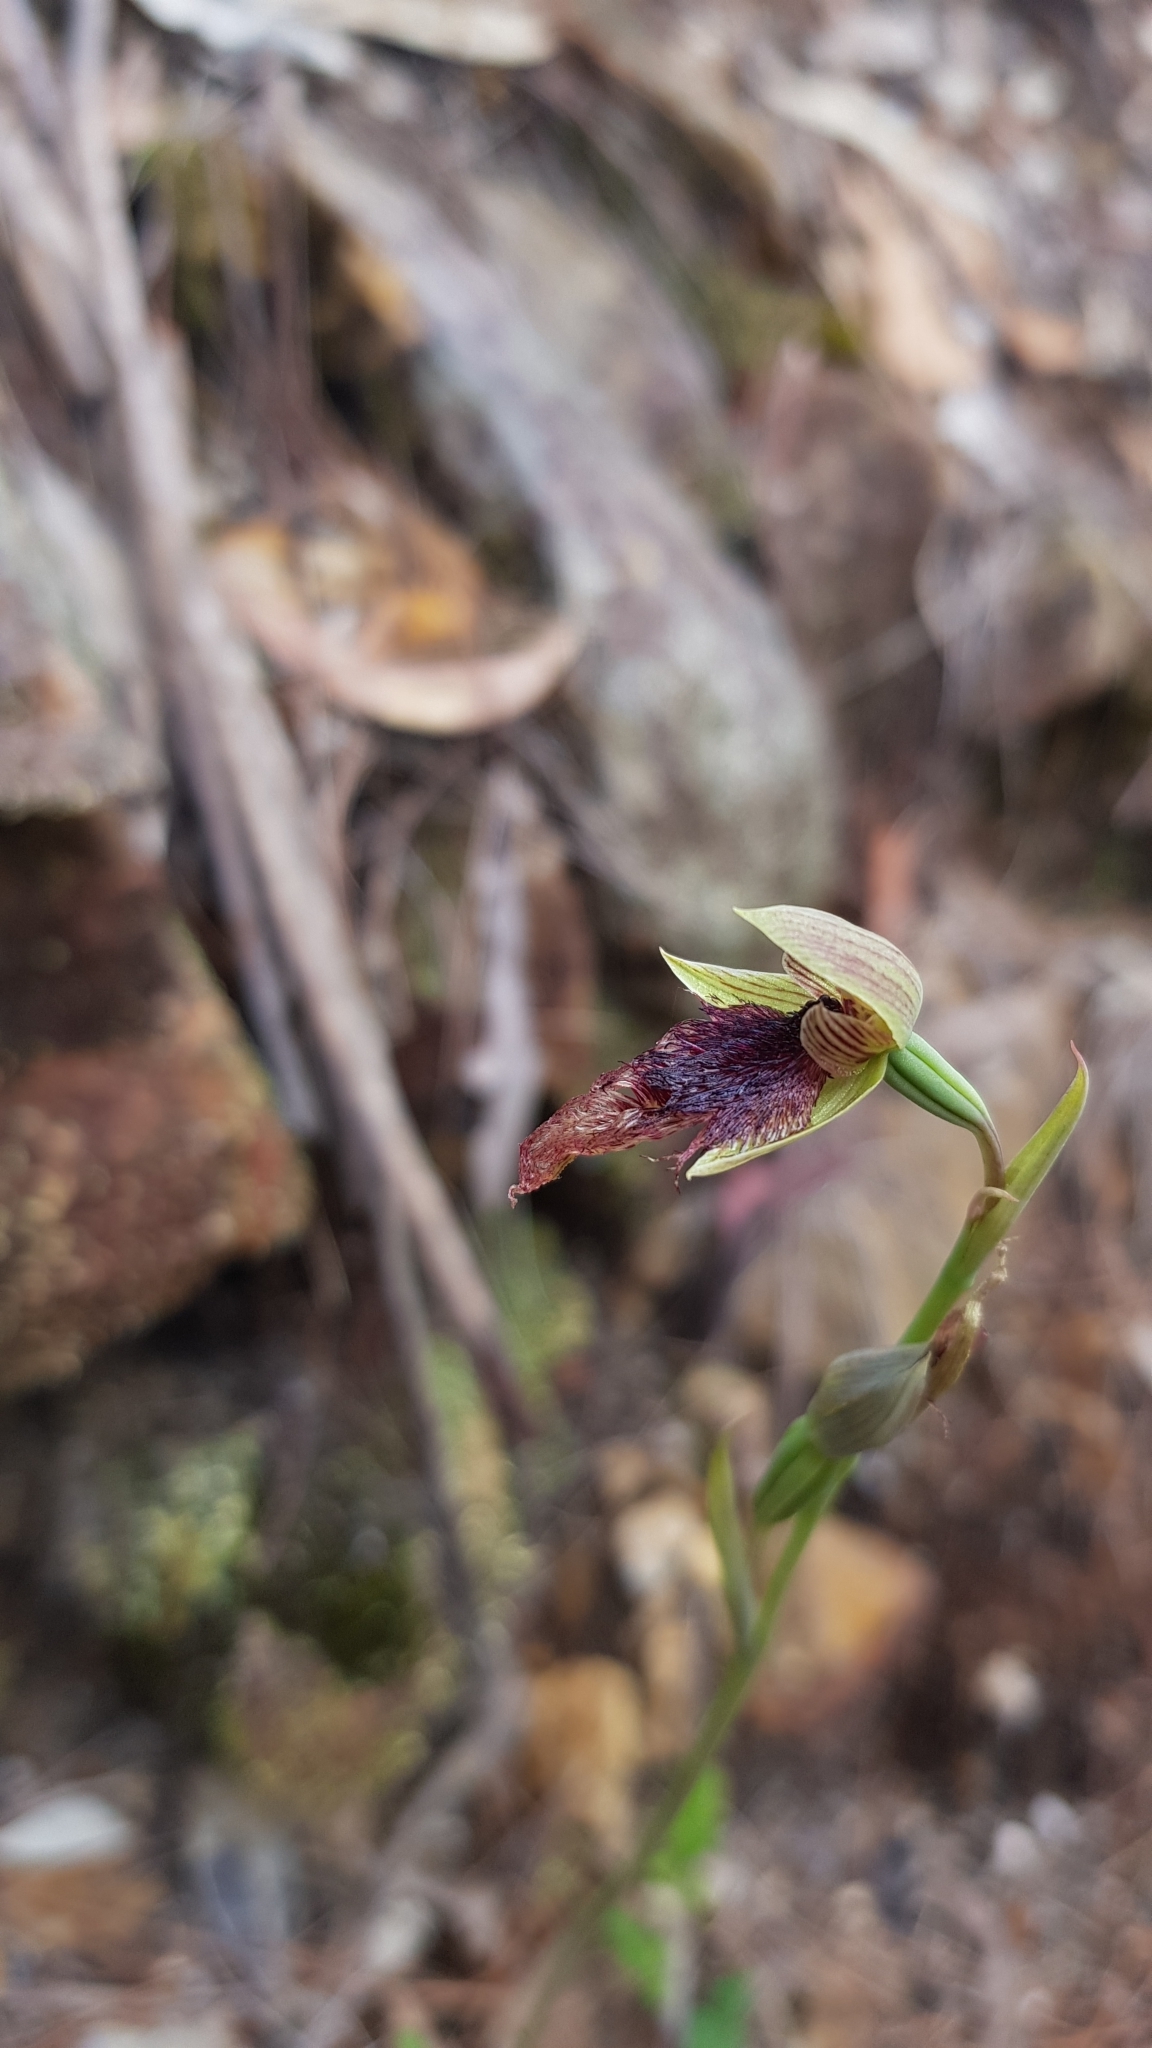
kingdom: Plantae
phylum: Tracheophyta
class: Liliopsida
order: Asparagales
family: Orchidaceae
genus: Calochilus
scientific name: Calochilus robertsonii
